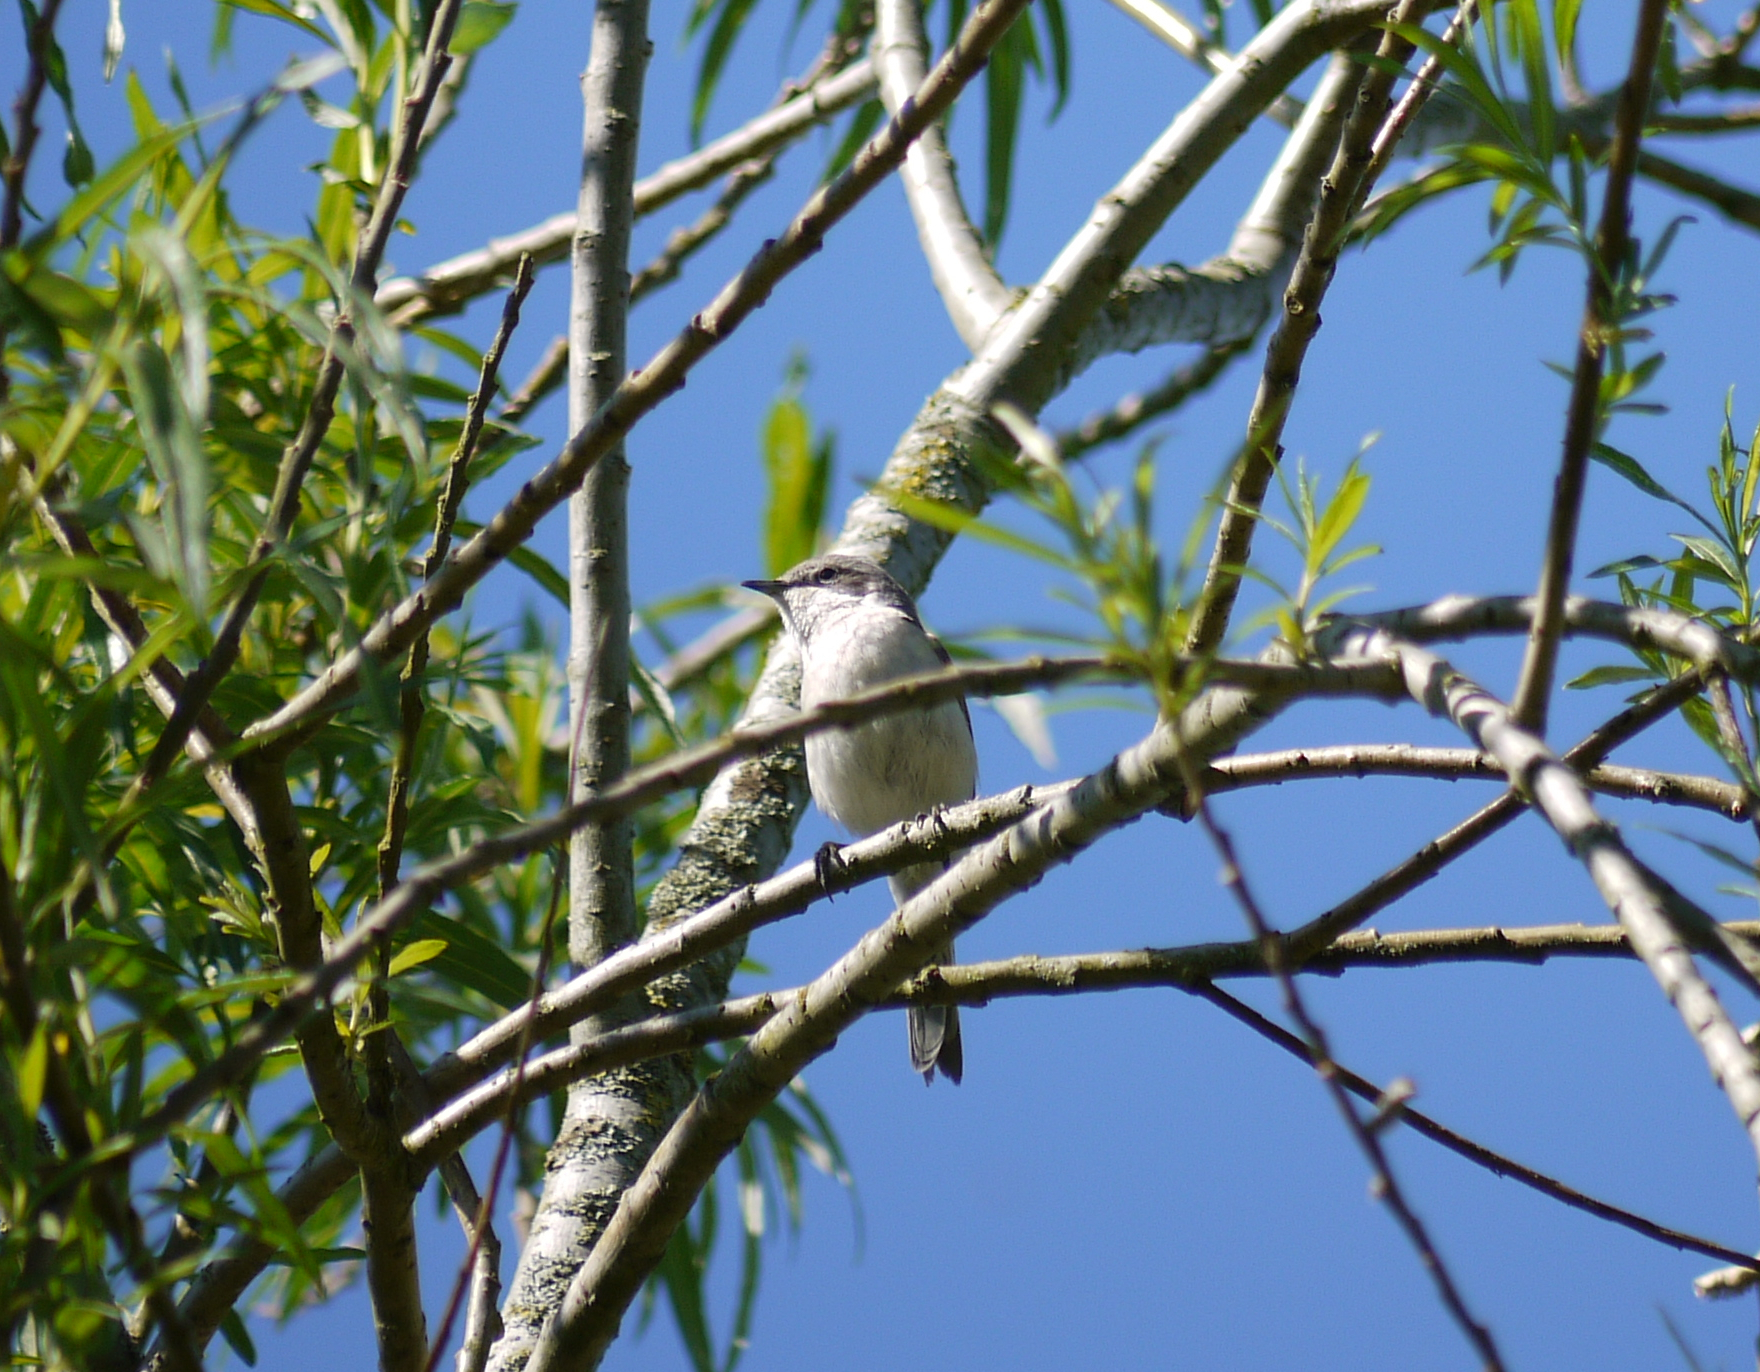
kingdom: Animalia
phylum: Chordata
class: Aves
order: Passeriformes
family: Sylviidae
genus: Sylvia
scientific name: Sylvia curruca
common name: Lesser whitethroat
